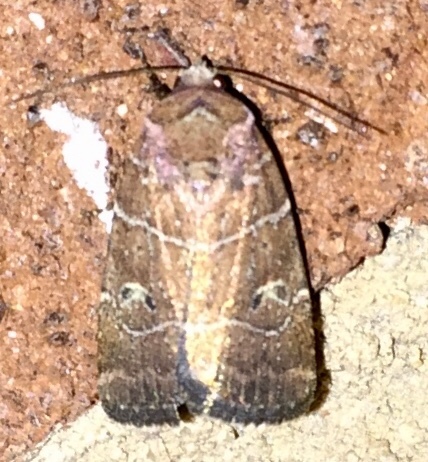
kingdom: Animalia
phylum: Arthropoda
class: Insecta
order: Lepidoptera
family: Noctuidae
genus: Elaphria
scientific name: Elaphria grata
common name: Grateful midget moth
